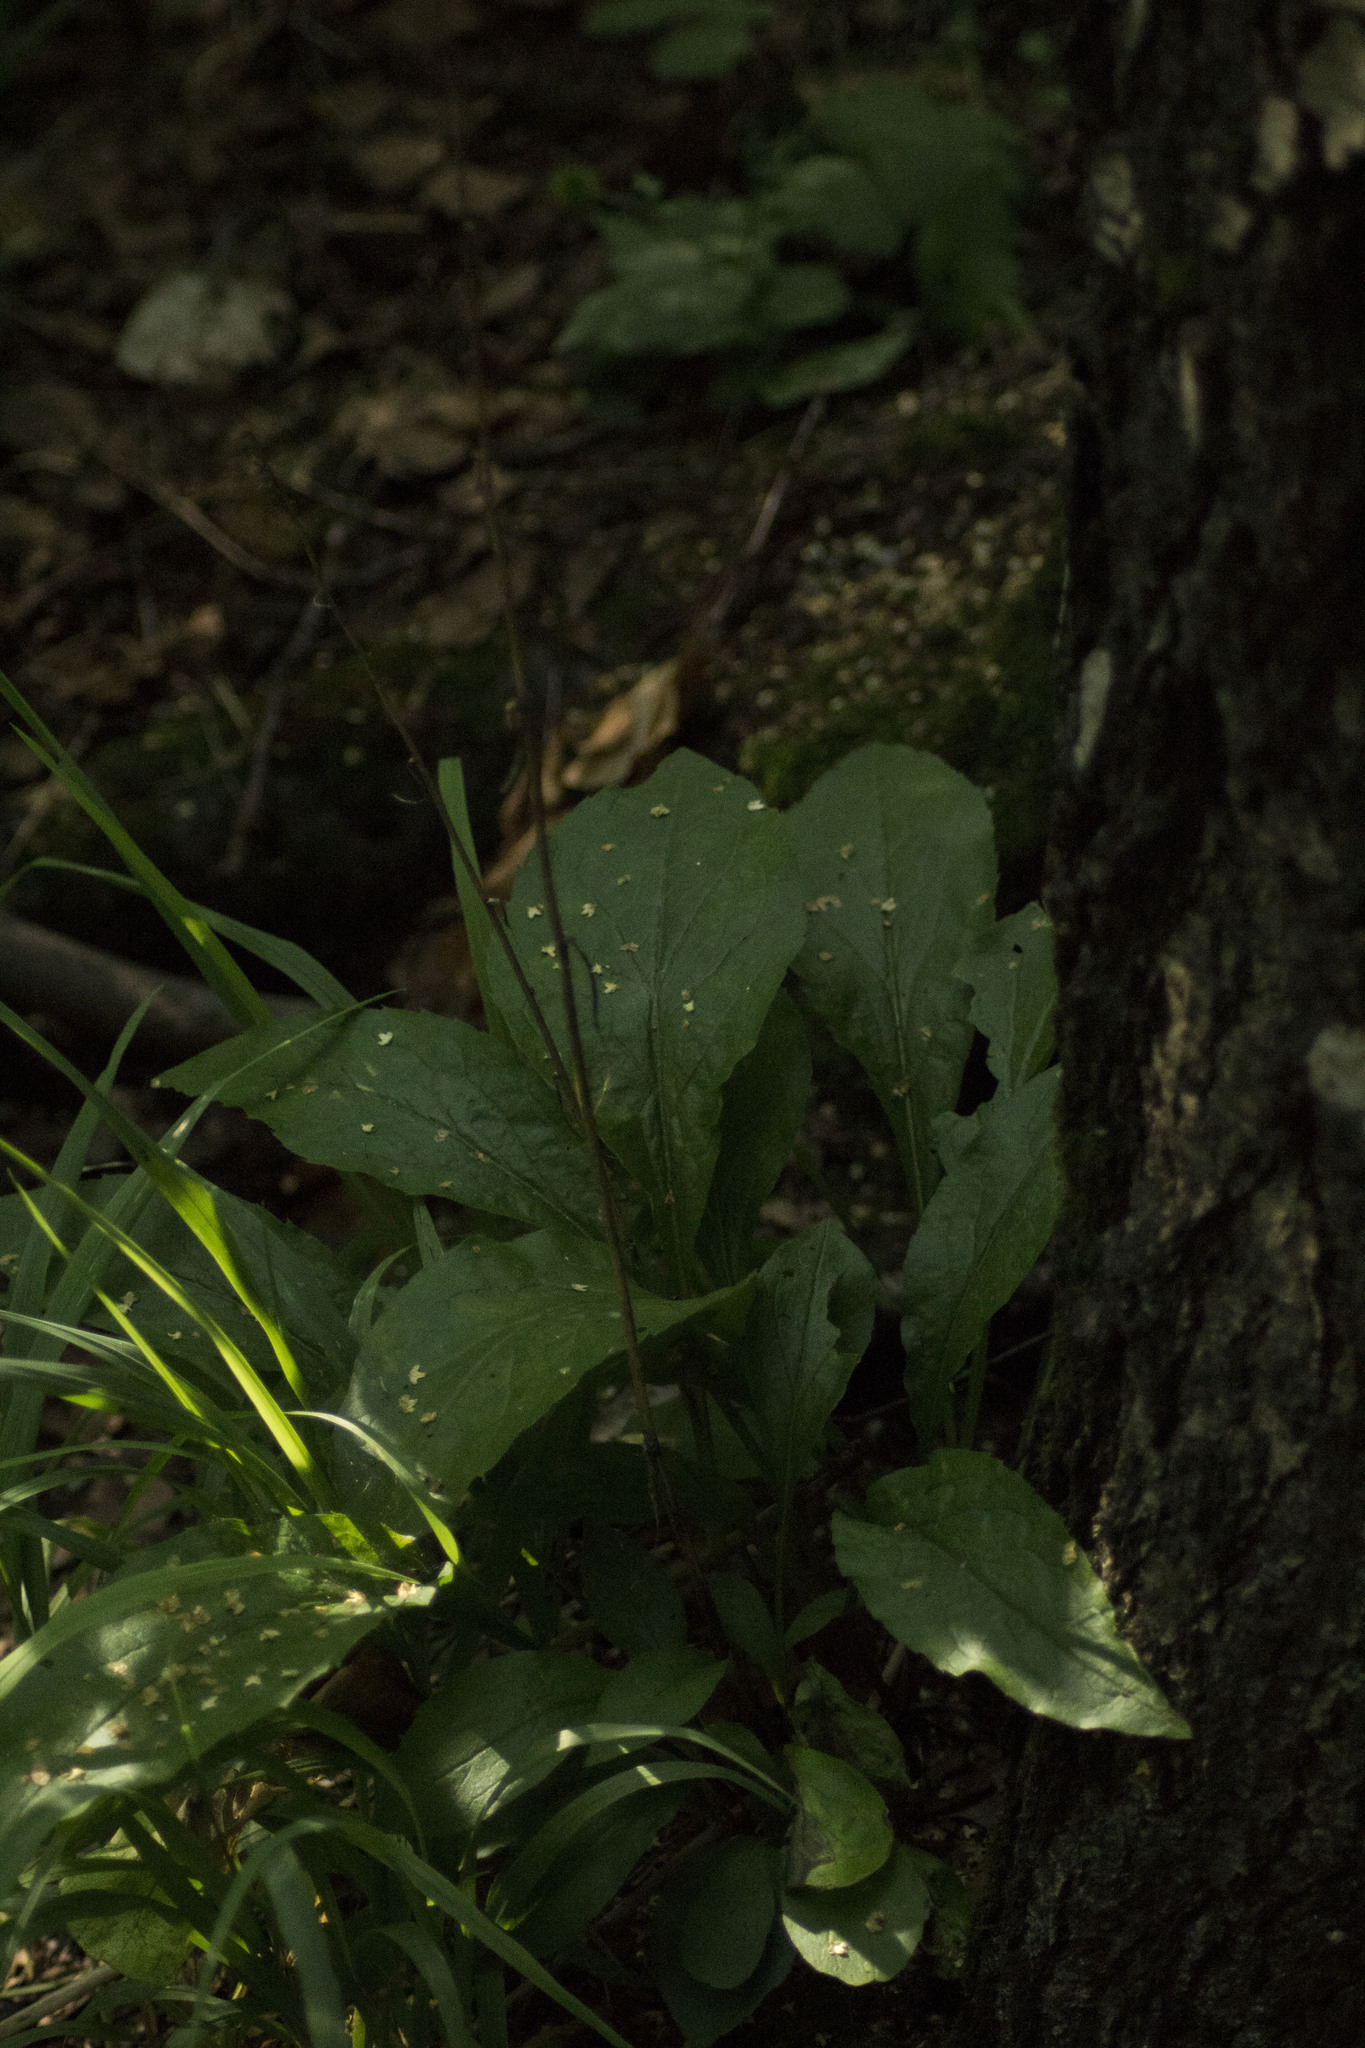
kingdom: Plantae
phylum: Tracheophyta
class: Magnoliopsida
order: Asterales
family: Asteraceae
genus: Solidago
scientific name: Solidago virgaurea
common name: Goldenrod
